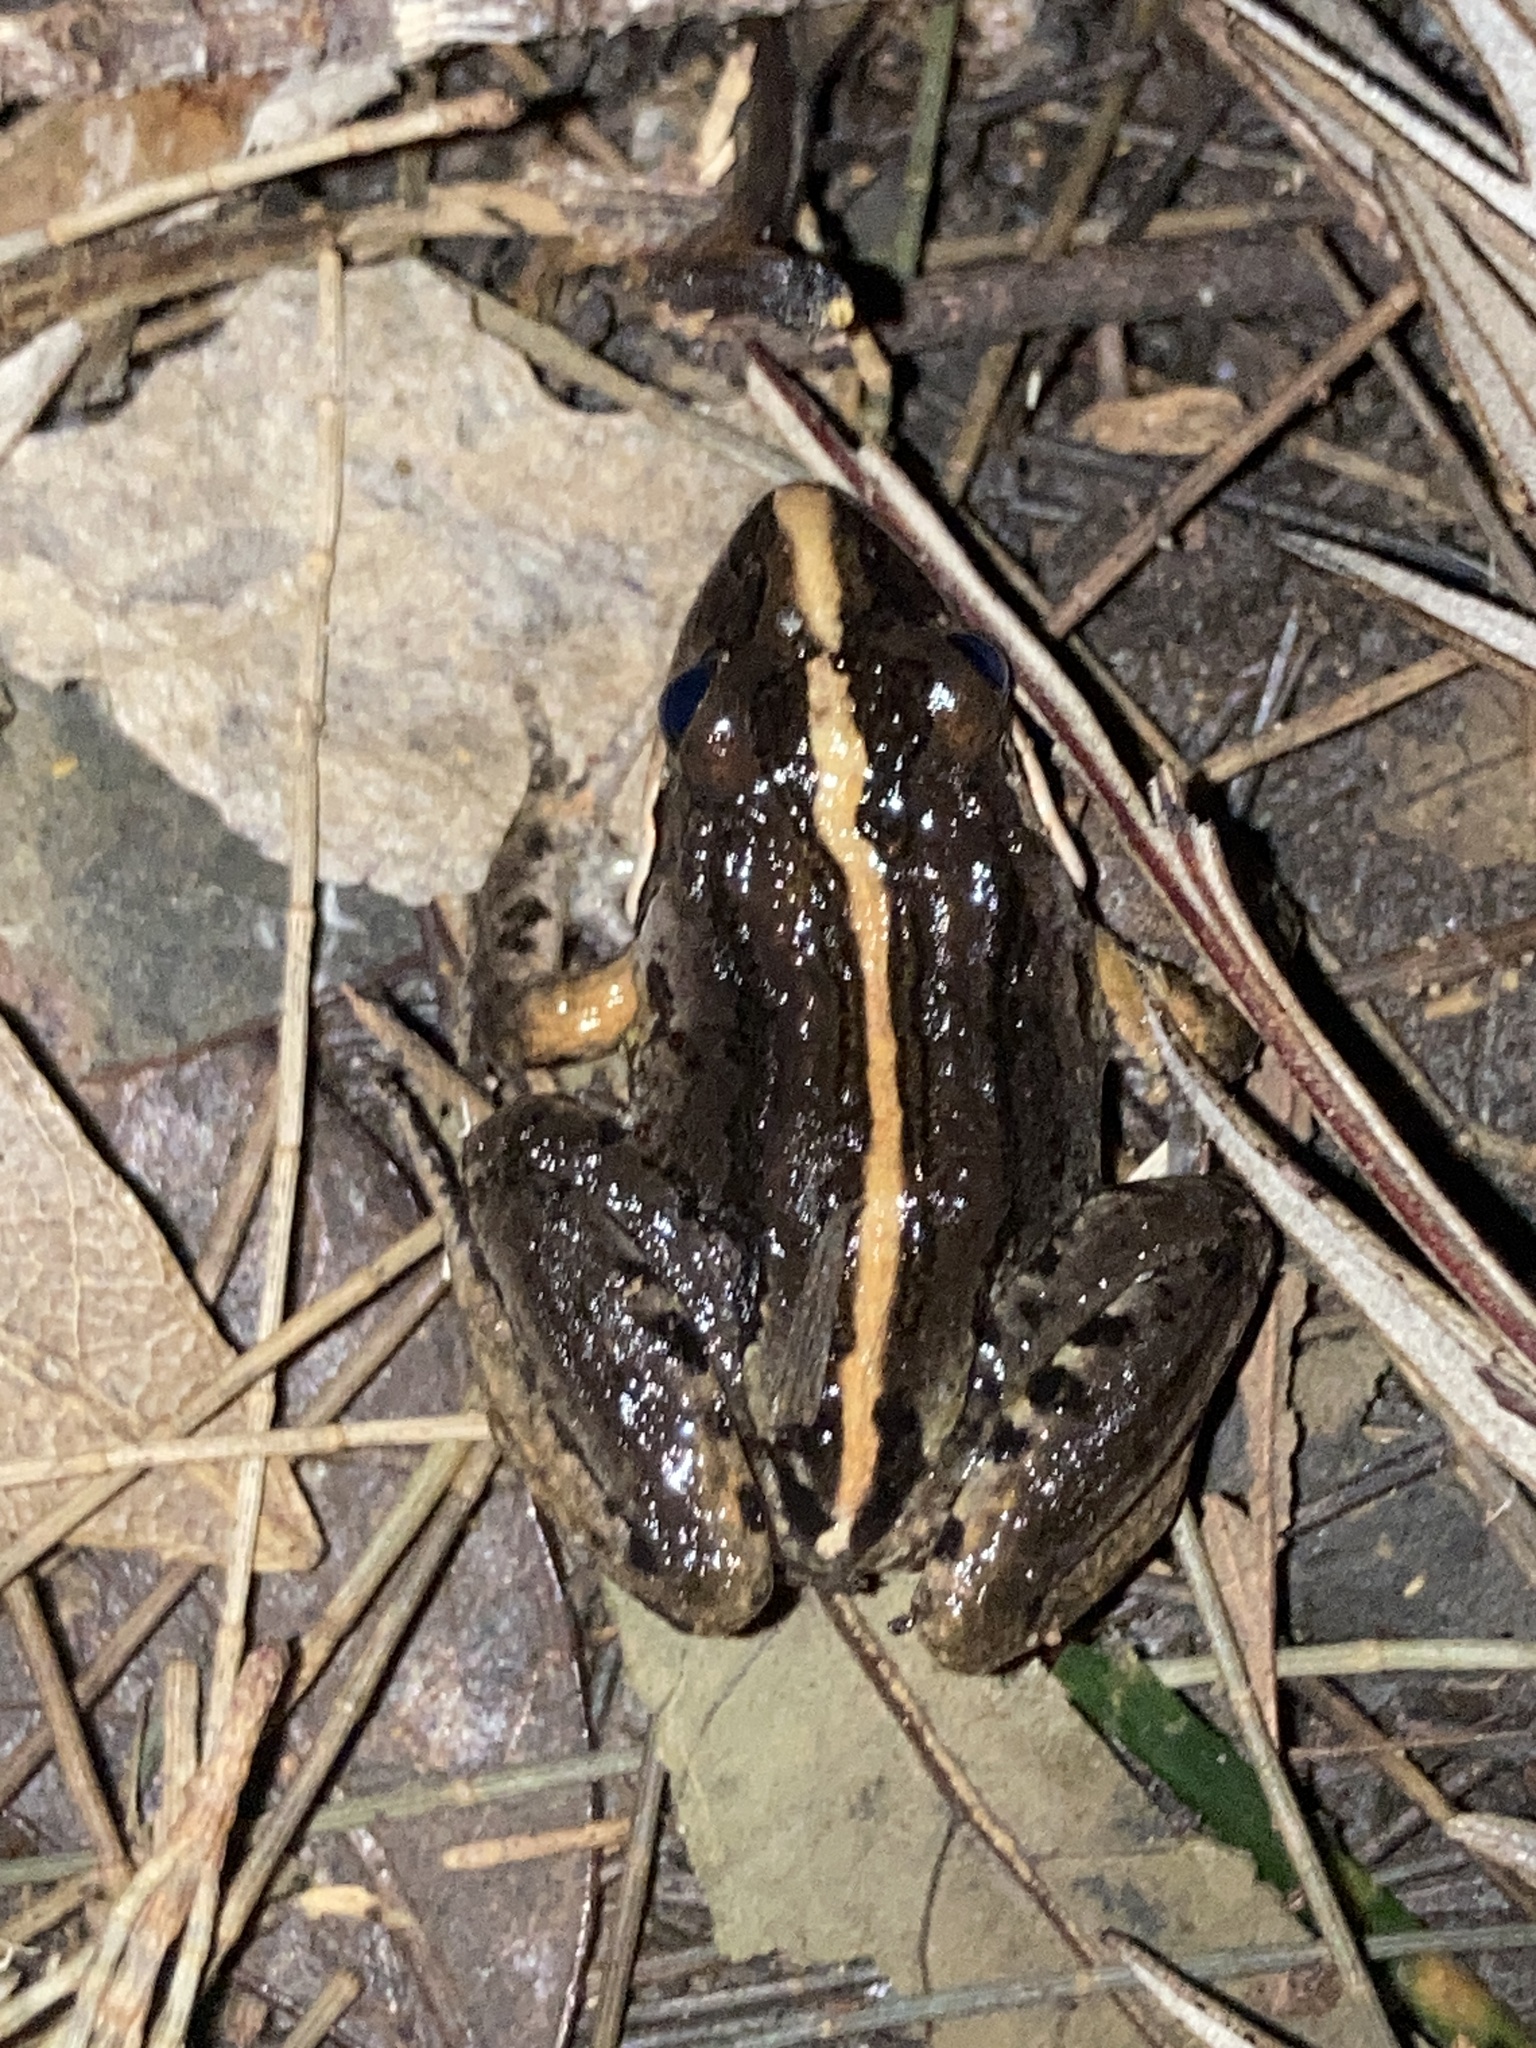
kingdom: Animalia
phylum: Chordata
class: Amphibia
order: Anura
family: Limnodynastidae
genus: Limnodynastes
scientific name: Limnodynastes peronii
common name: Brown frog
